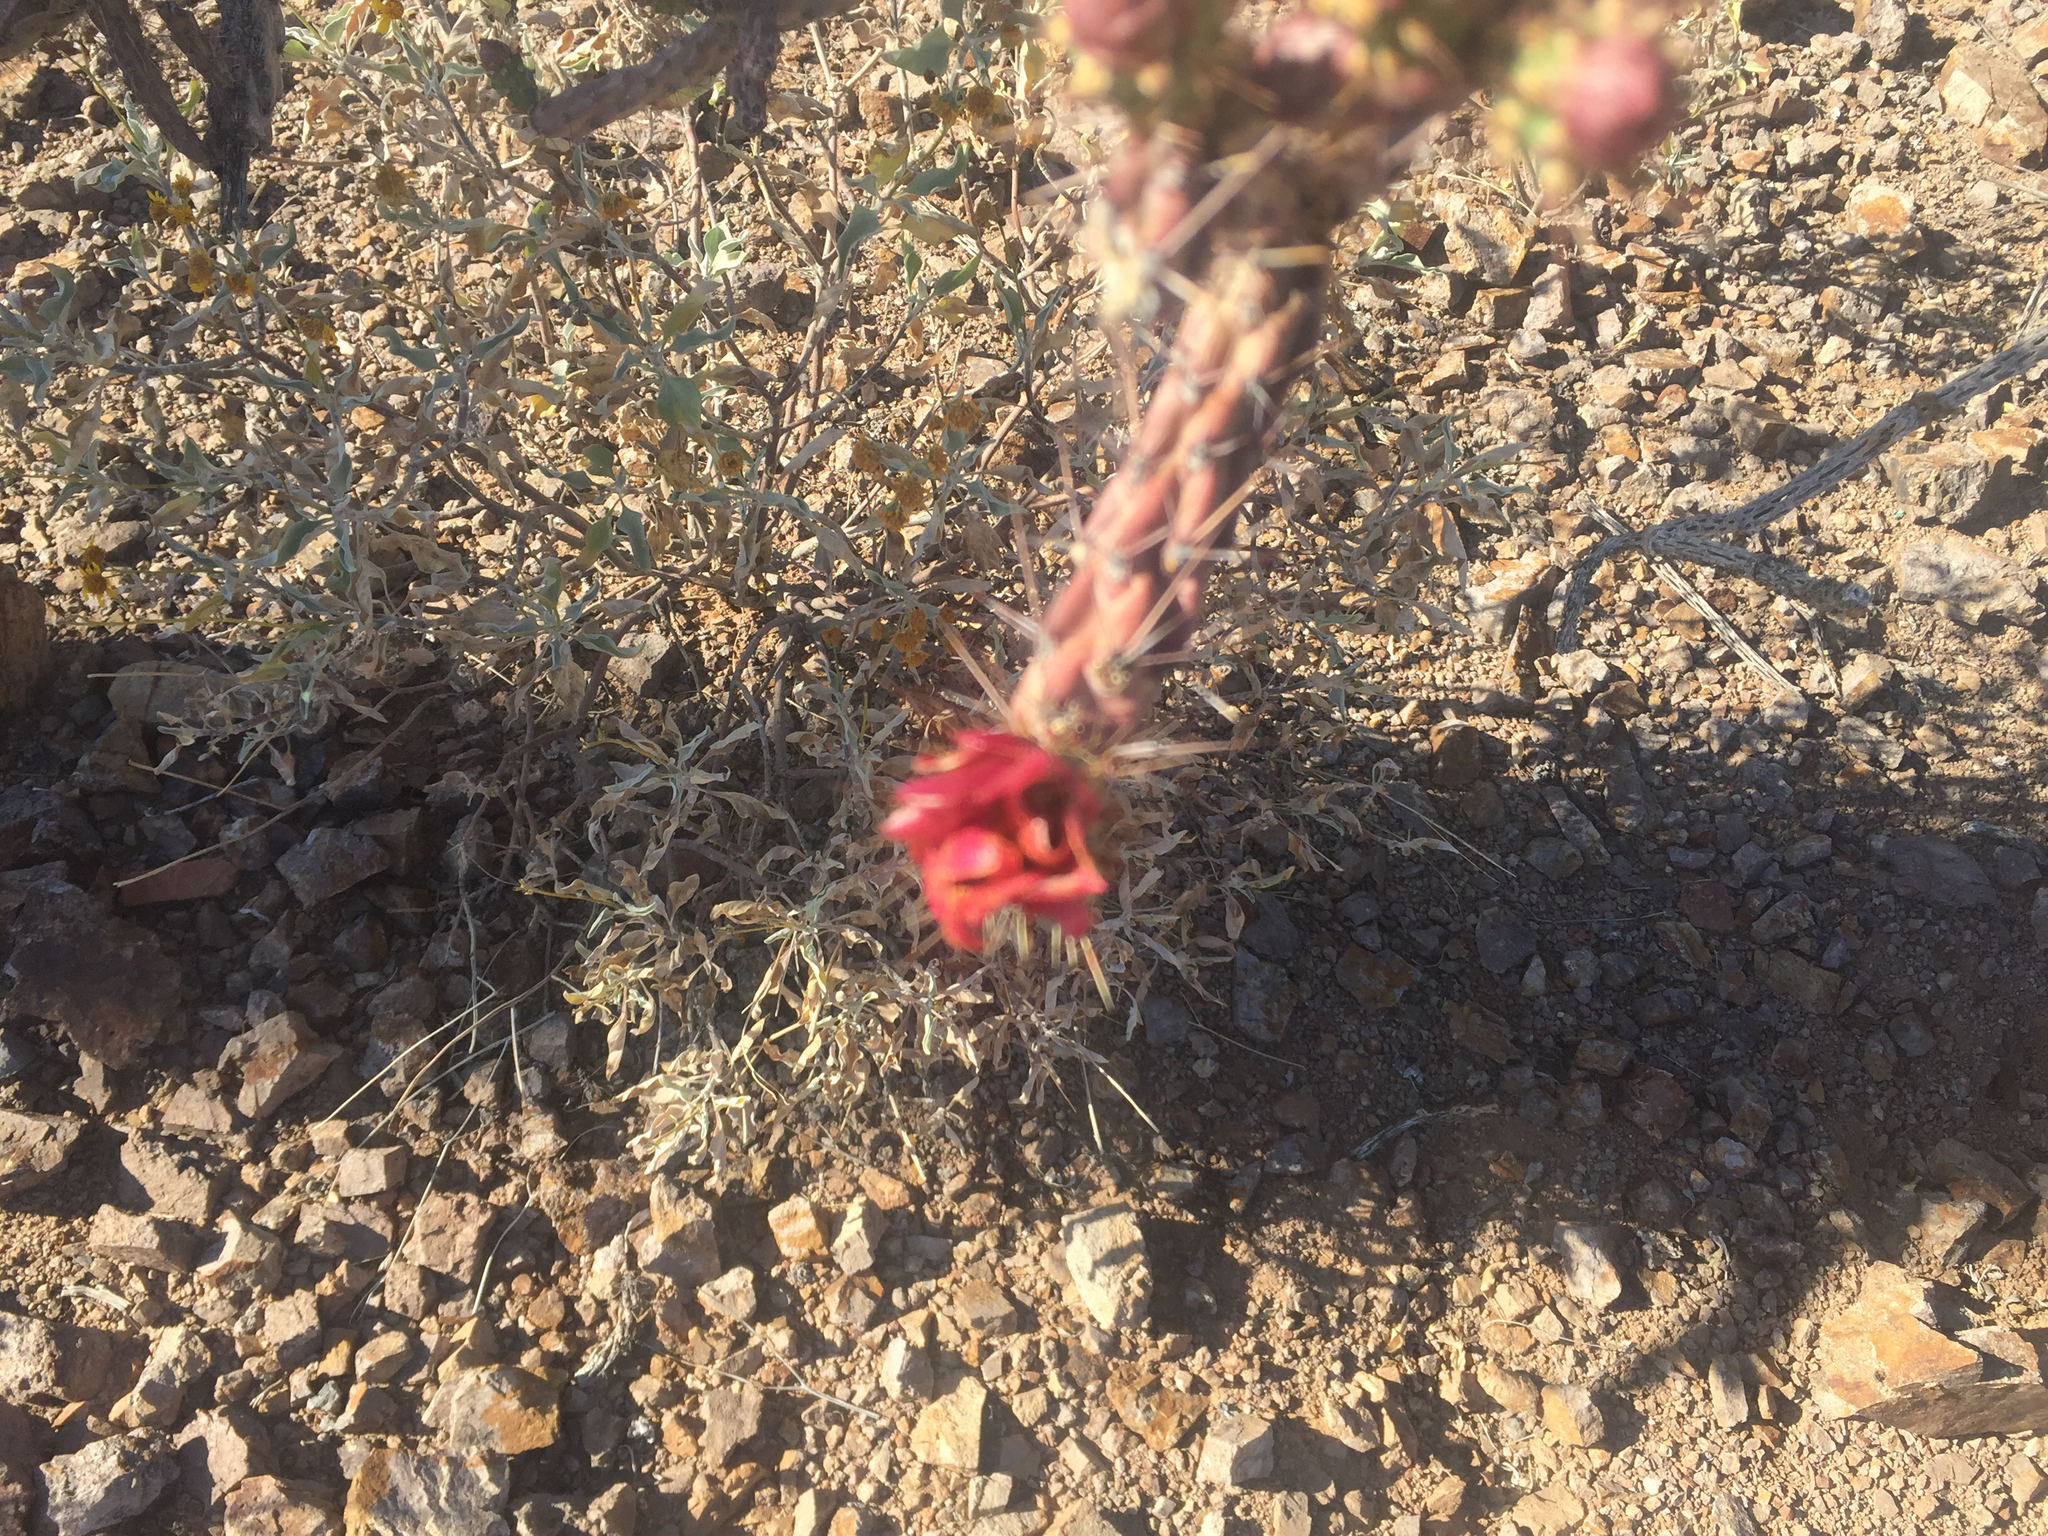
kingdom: Plantae
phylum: Tracheophyta
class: Magnoliopsida
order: Caryophyllales
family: Cactaceae
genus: Cylindropuntia
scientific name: Cylindropuntia thurberi
